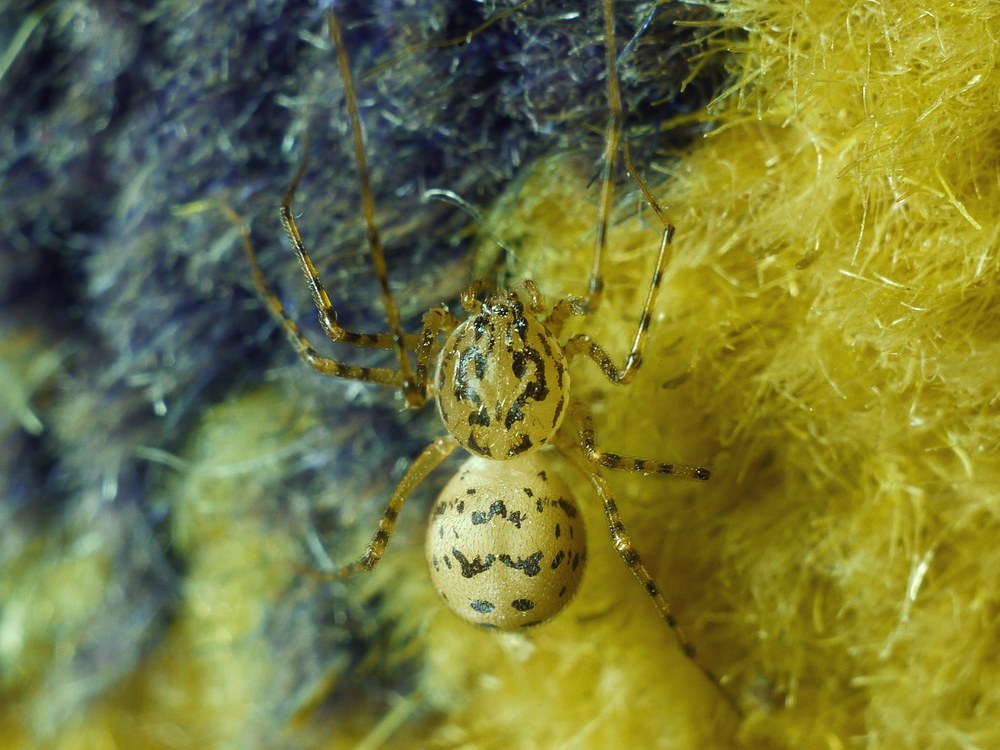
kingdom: Animalia
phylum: Arthropoda
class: Arachnida
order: Araneae
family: Scytodidae
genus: Scytodes
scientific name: Scytodes thoracica
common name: Spitting spider
